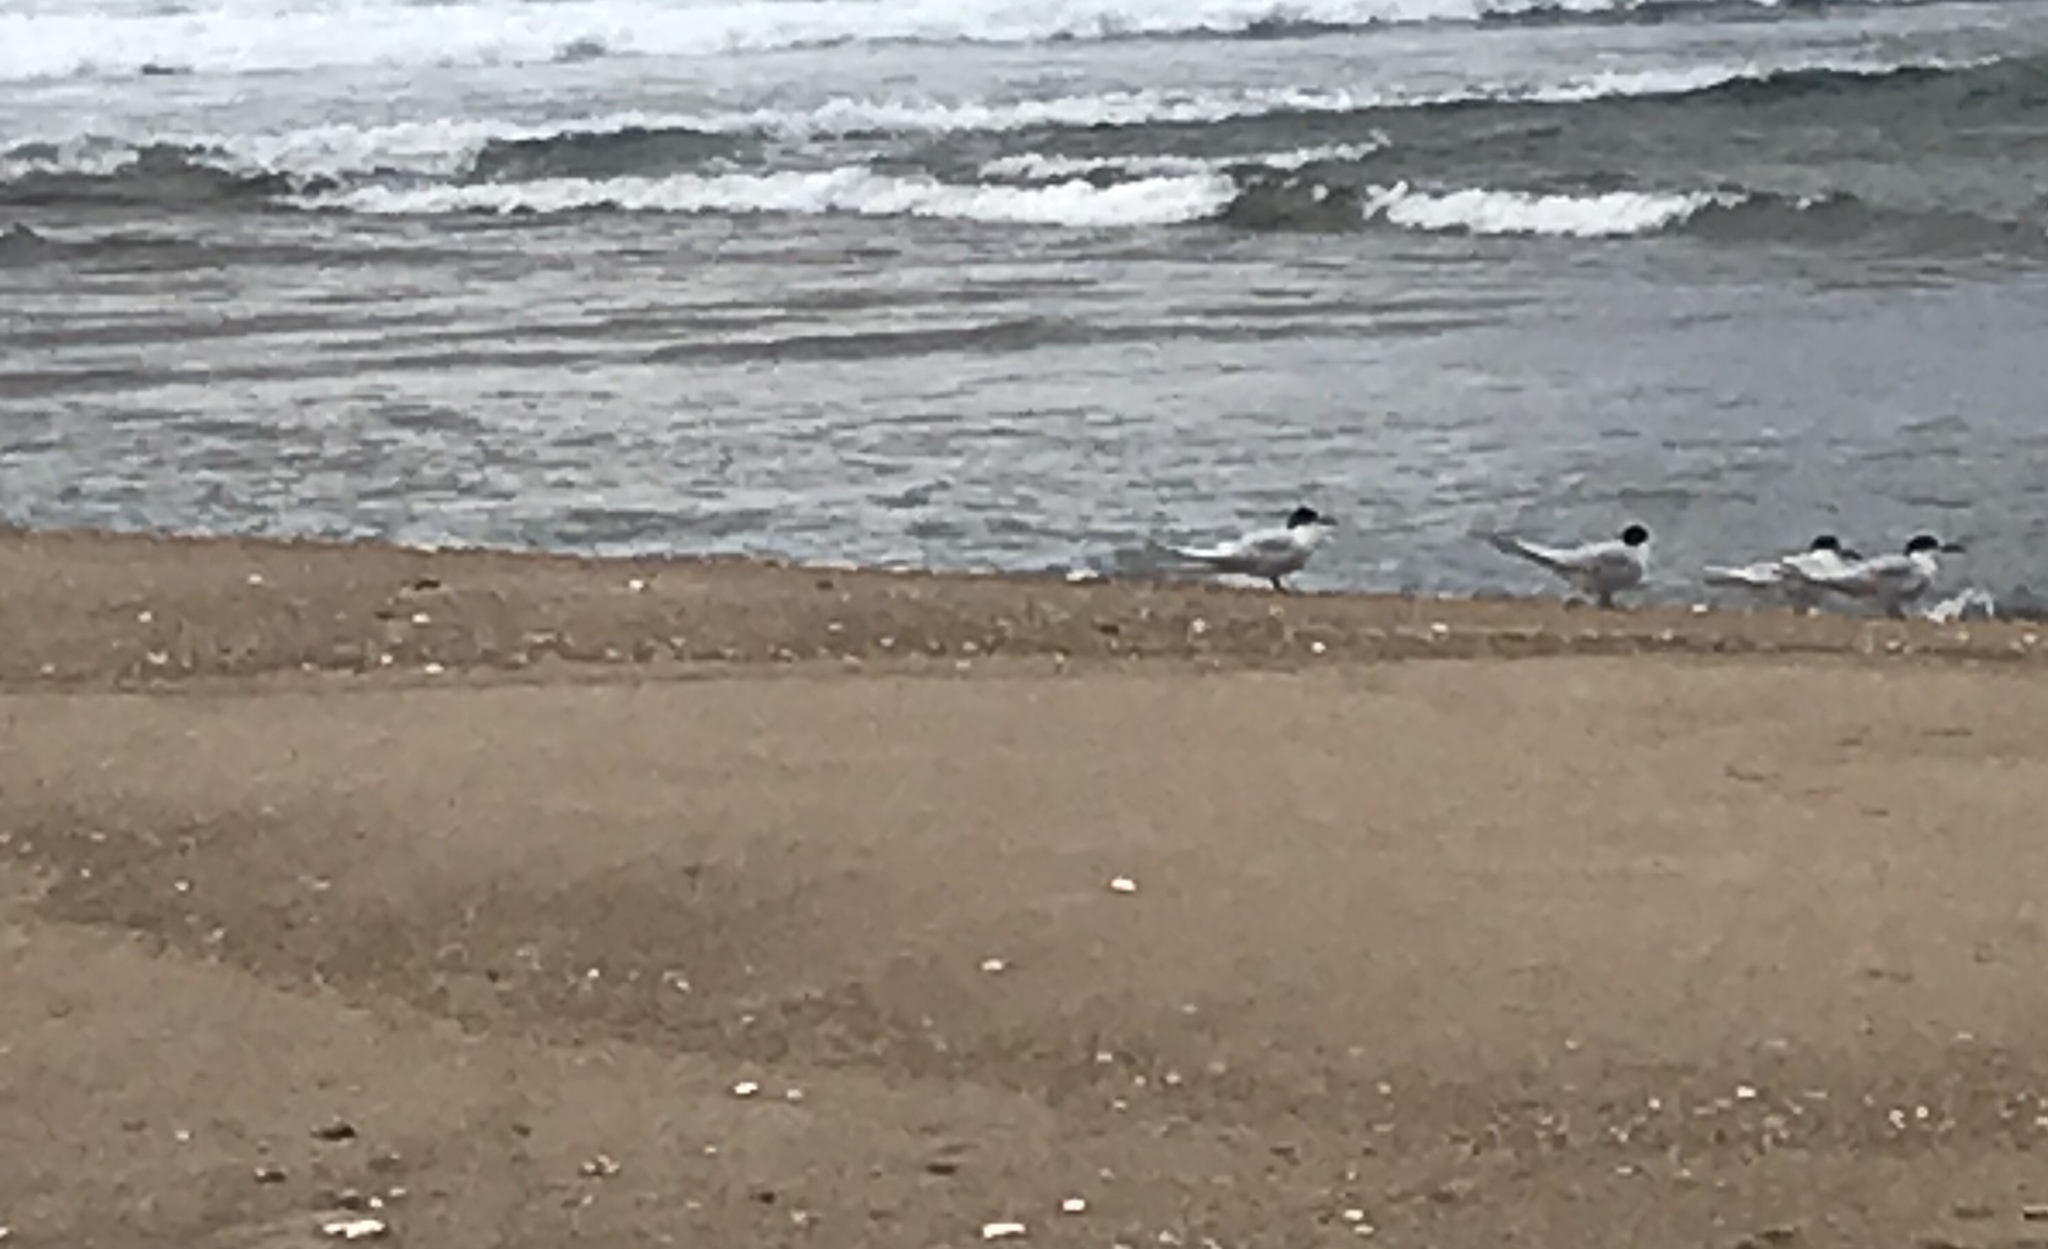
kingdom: Animalia
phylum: Chordata
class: Aves
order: Charadriiformes
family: Laridae
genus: Sterna
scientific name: Sterna striata
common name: White-fronted tern
